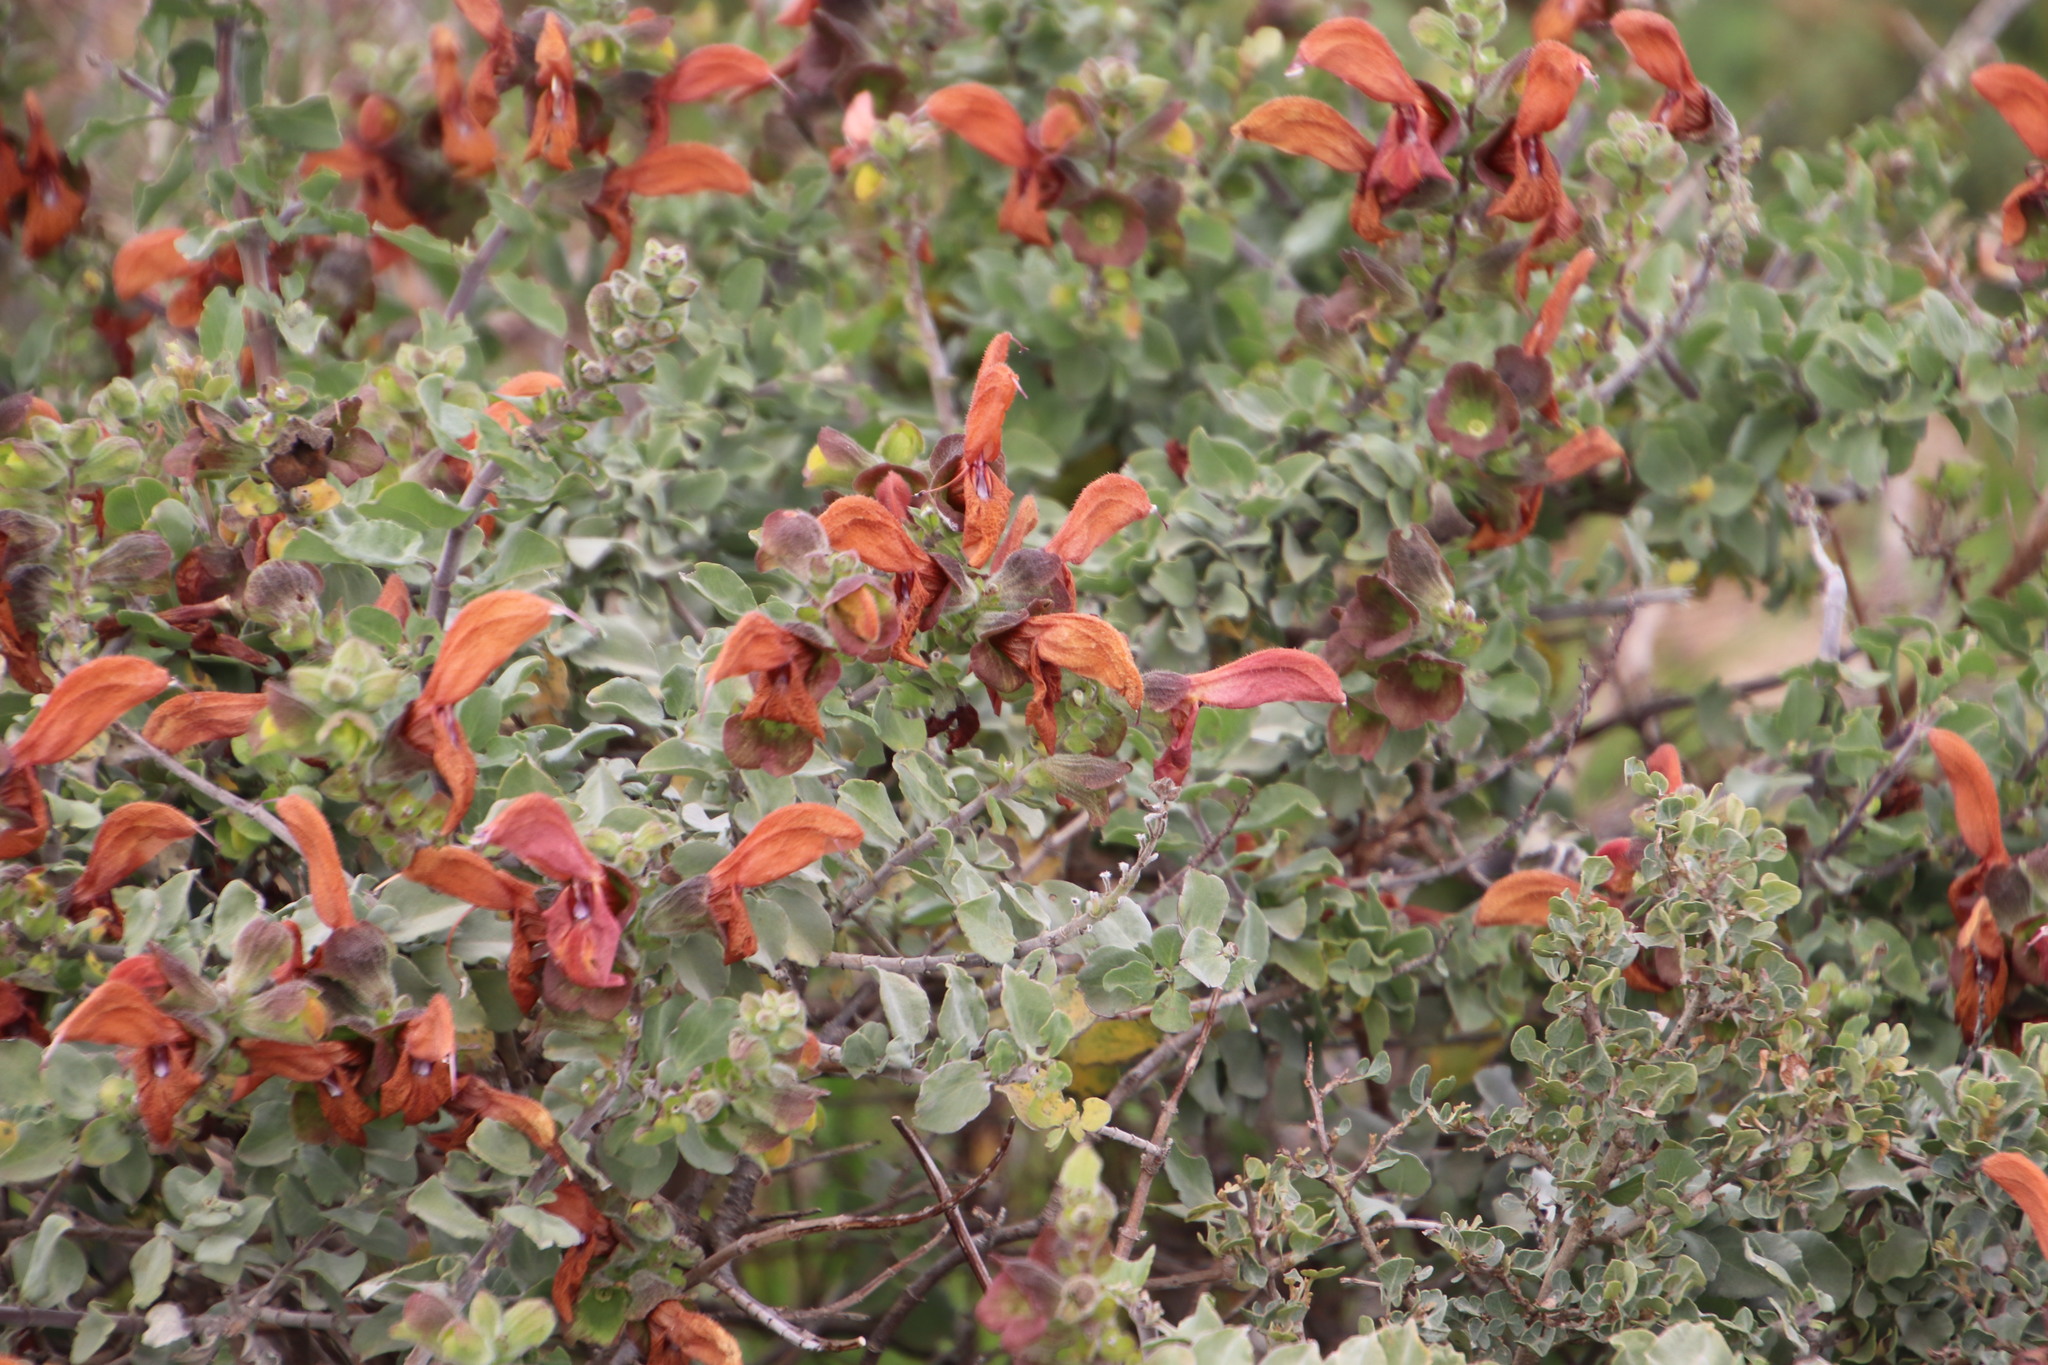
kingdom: Plantae
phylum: Tracheophyta
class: Magnoliopsida
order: Lamiales
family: Lamiaceae
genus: Salvia
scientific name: Salvia aurea
